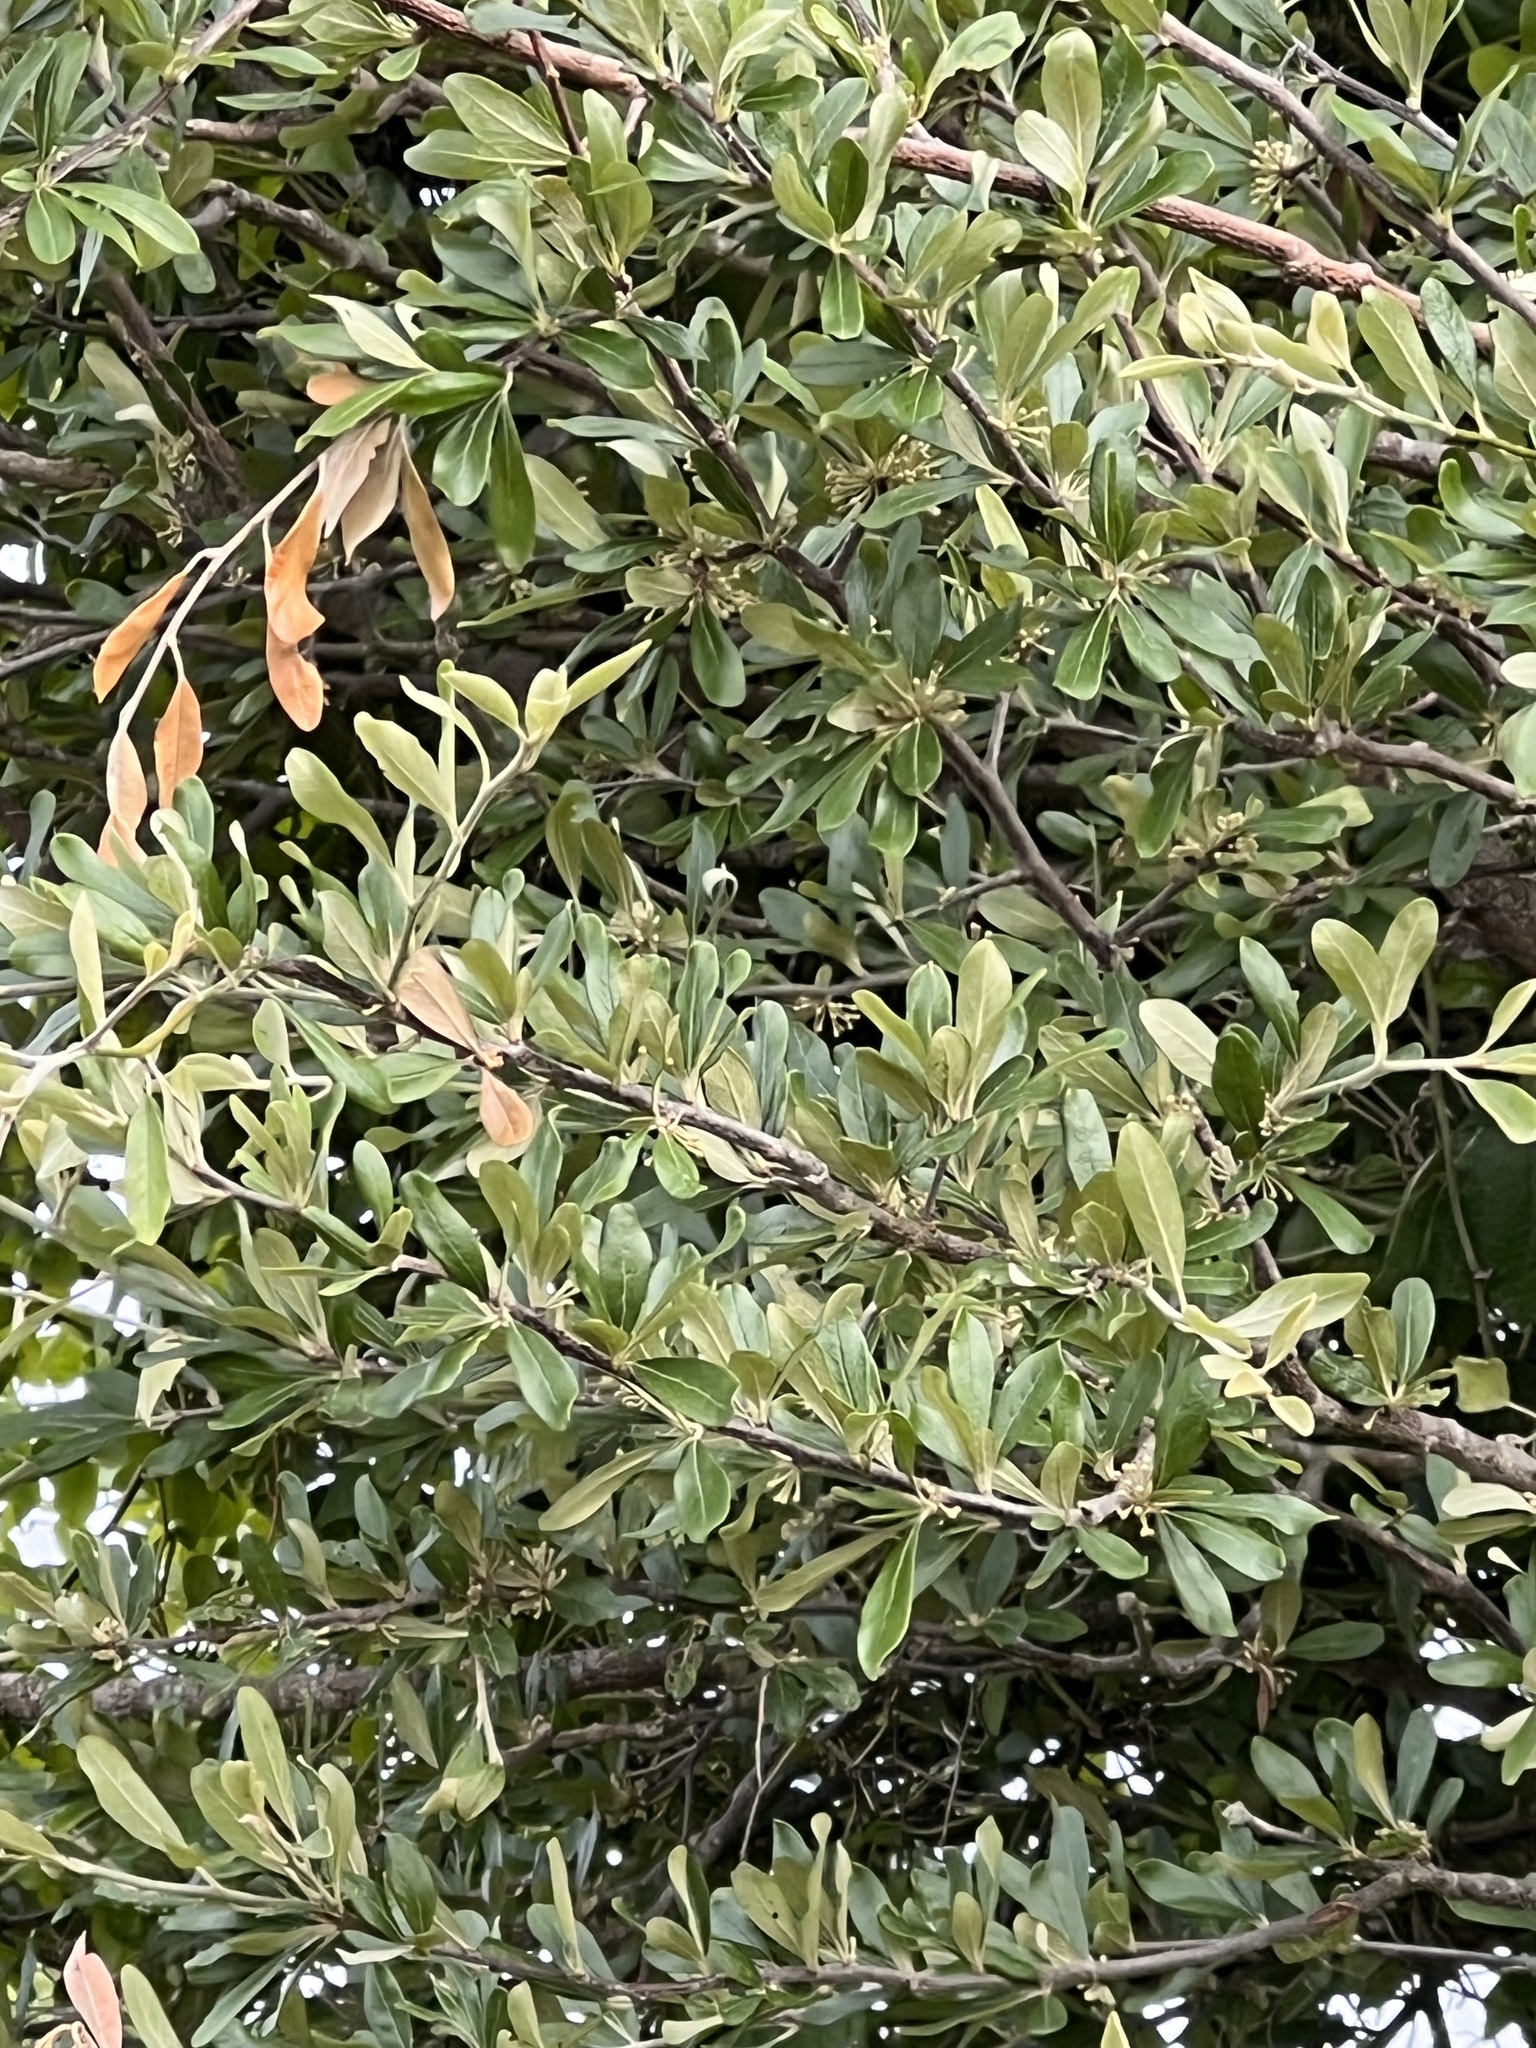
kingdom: Plantae
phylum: Tracheophyta
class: Magnoliopsida
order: Ericales
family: Sapotaceae
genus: Sideroxylon
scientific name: Sideroxylon lanuginosum
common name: Chittamwood
